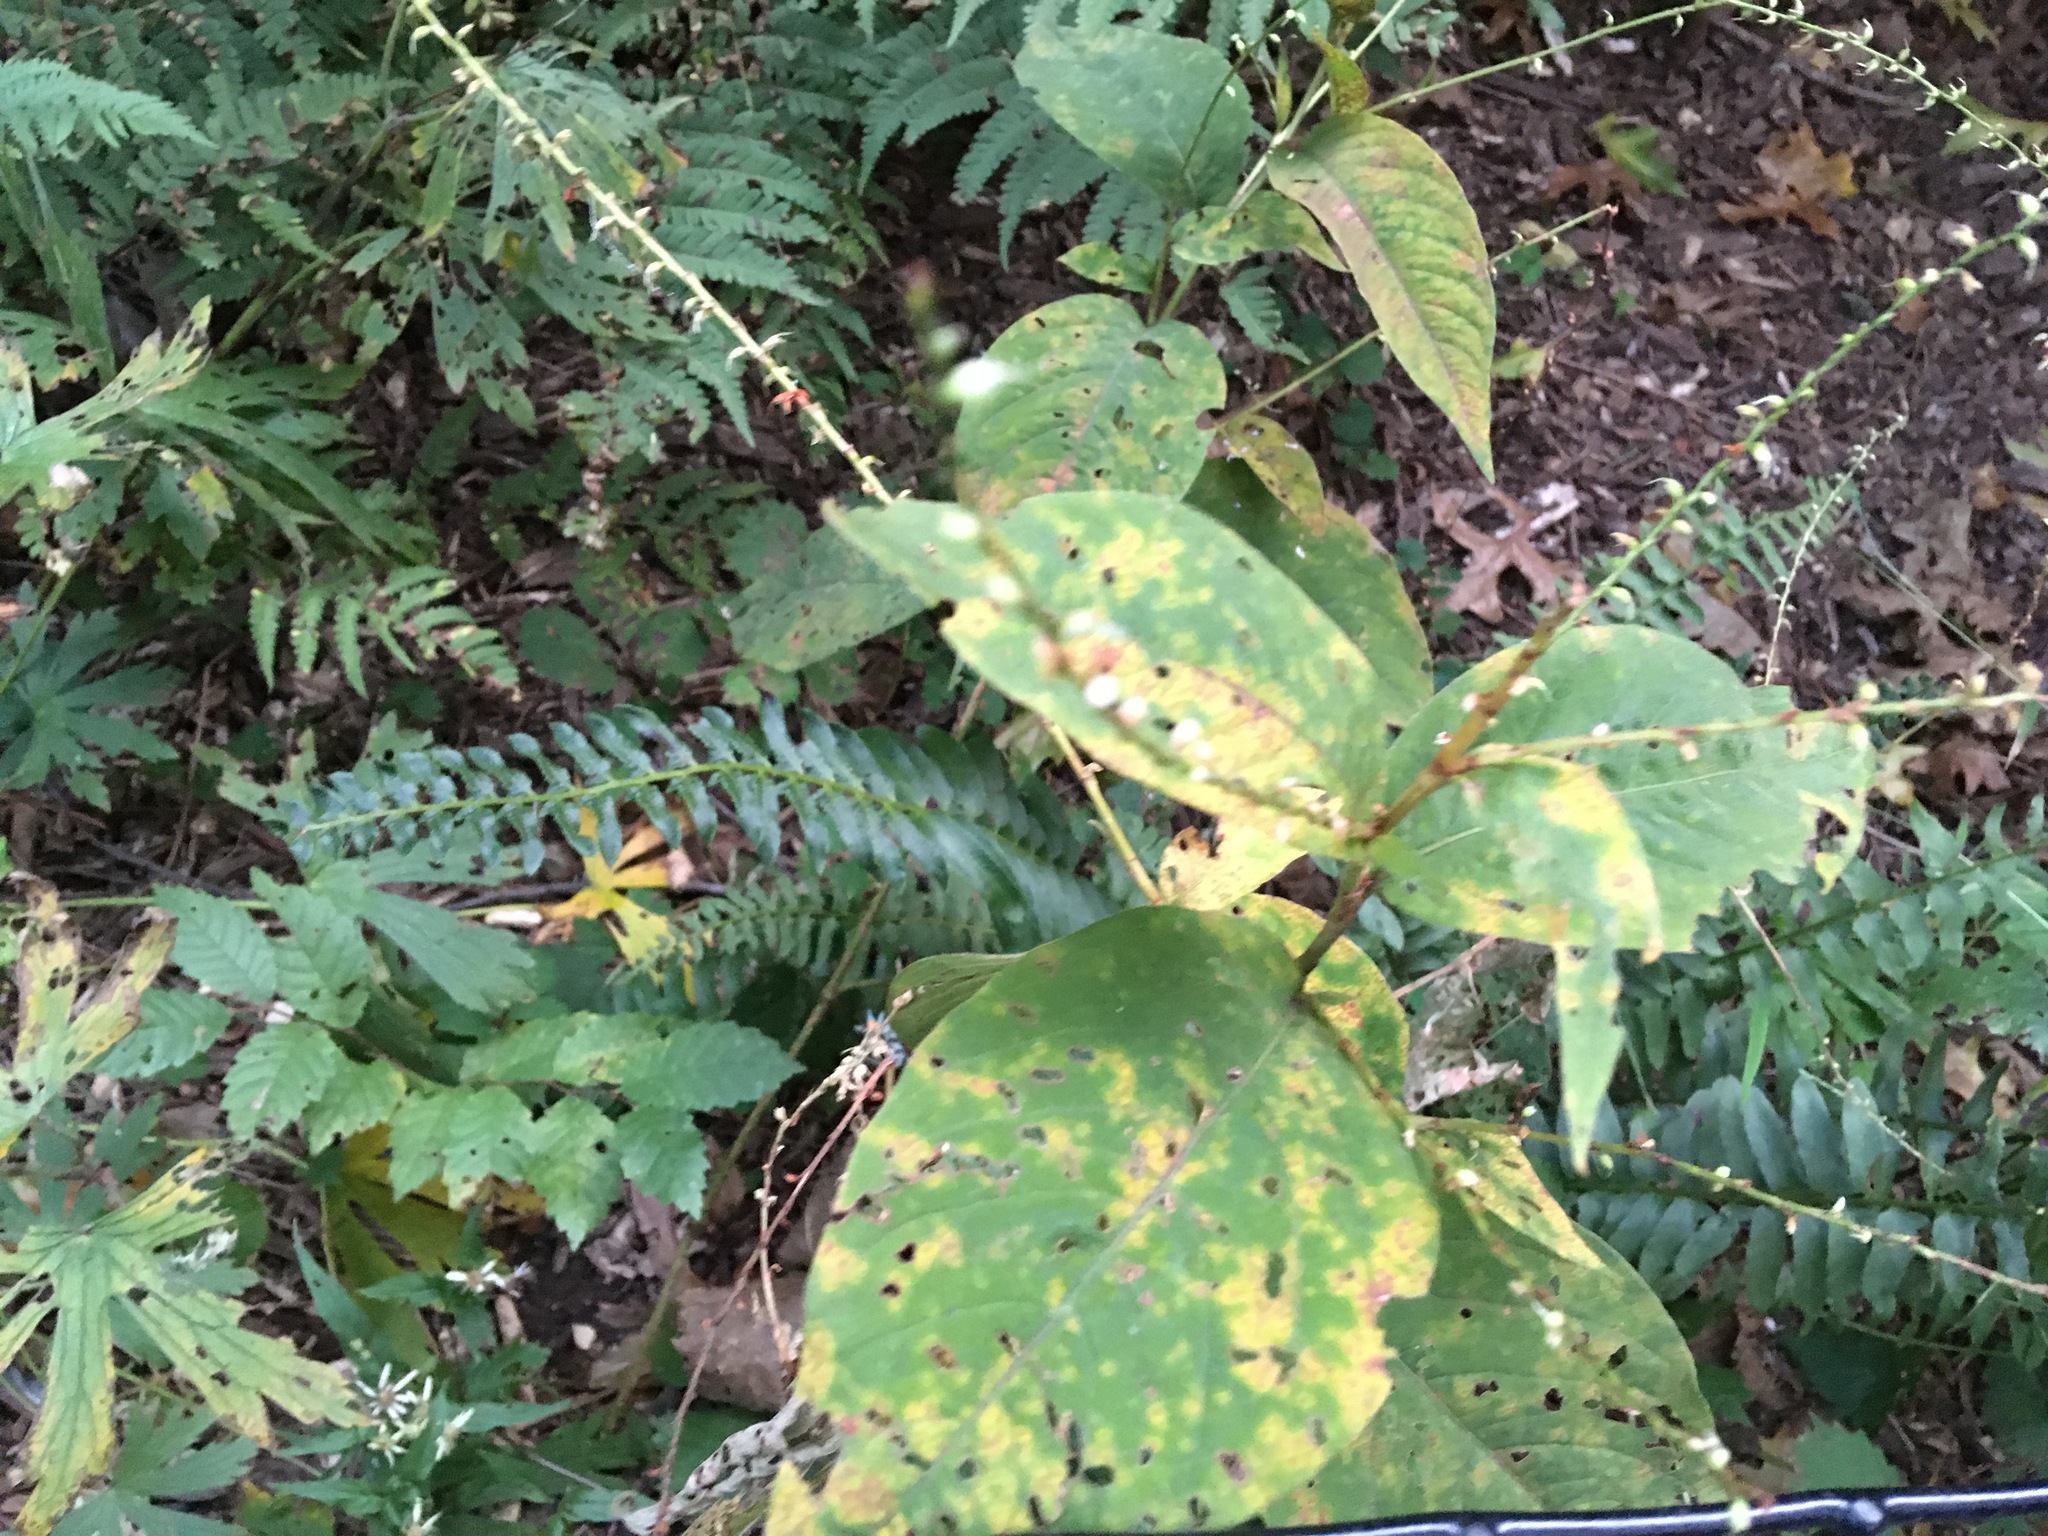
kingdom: Plantae
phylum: Tracheophyta
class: Magnoliopsida
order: Caryophyllales
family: Polygonaceae
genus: Persicaria
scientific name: Persicaria virginiana
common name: Jumpseed
